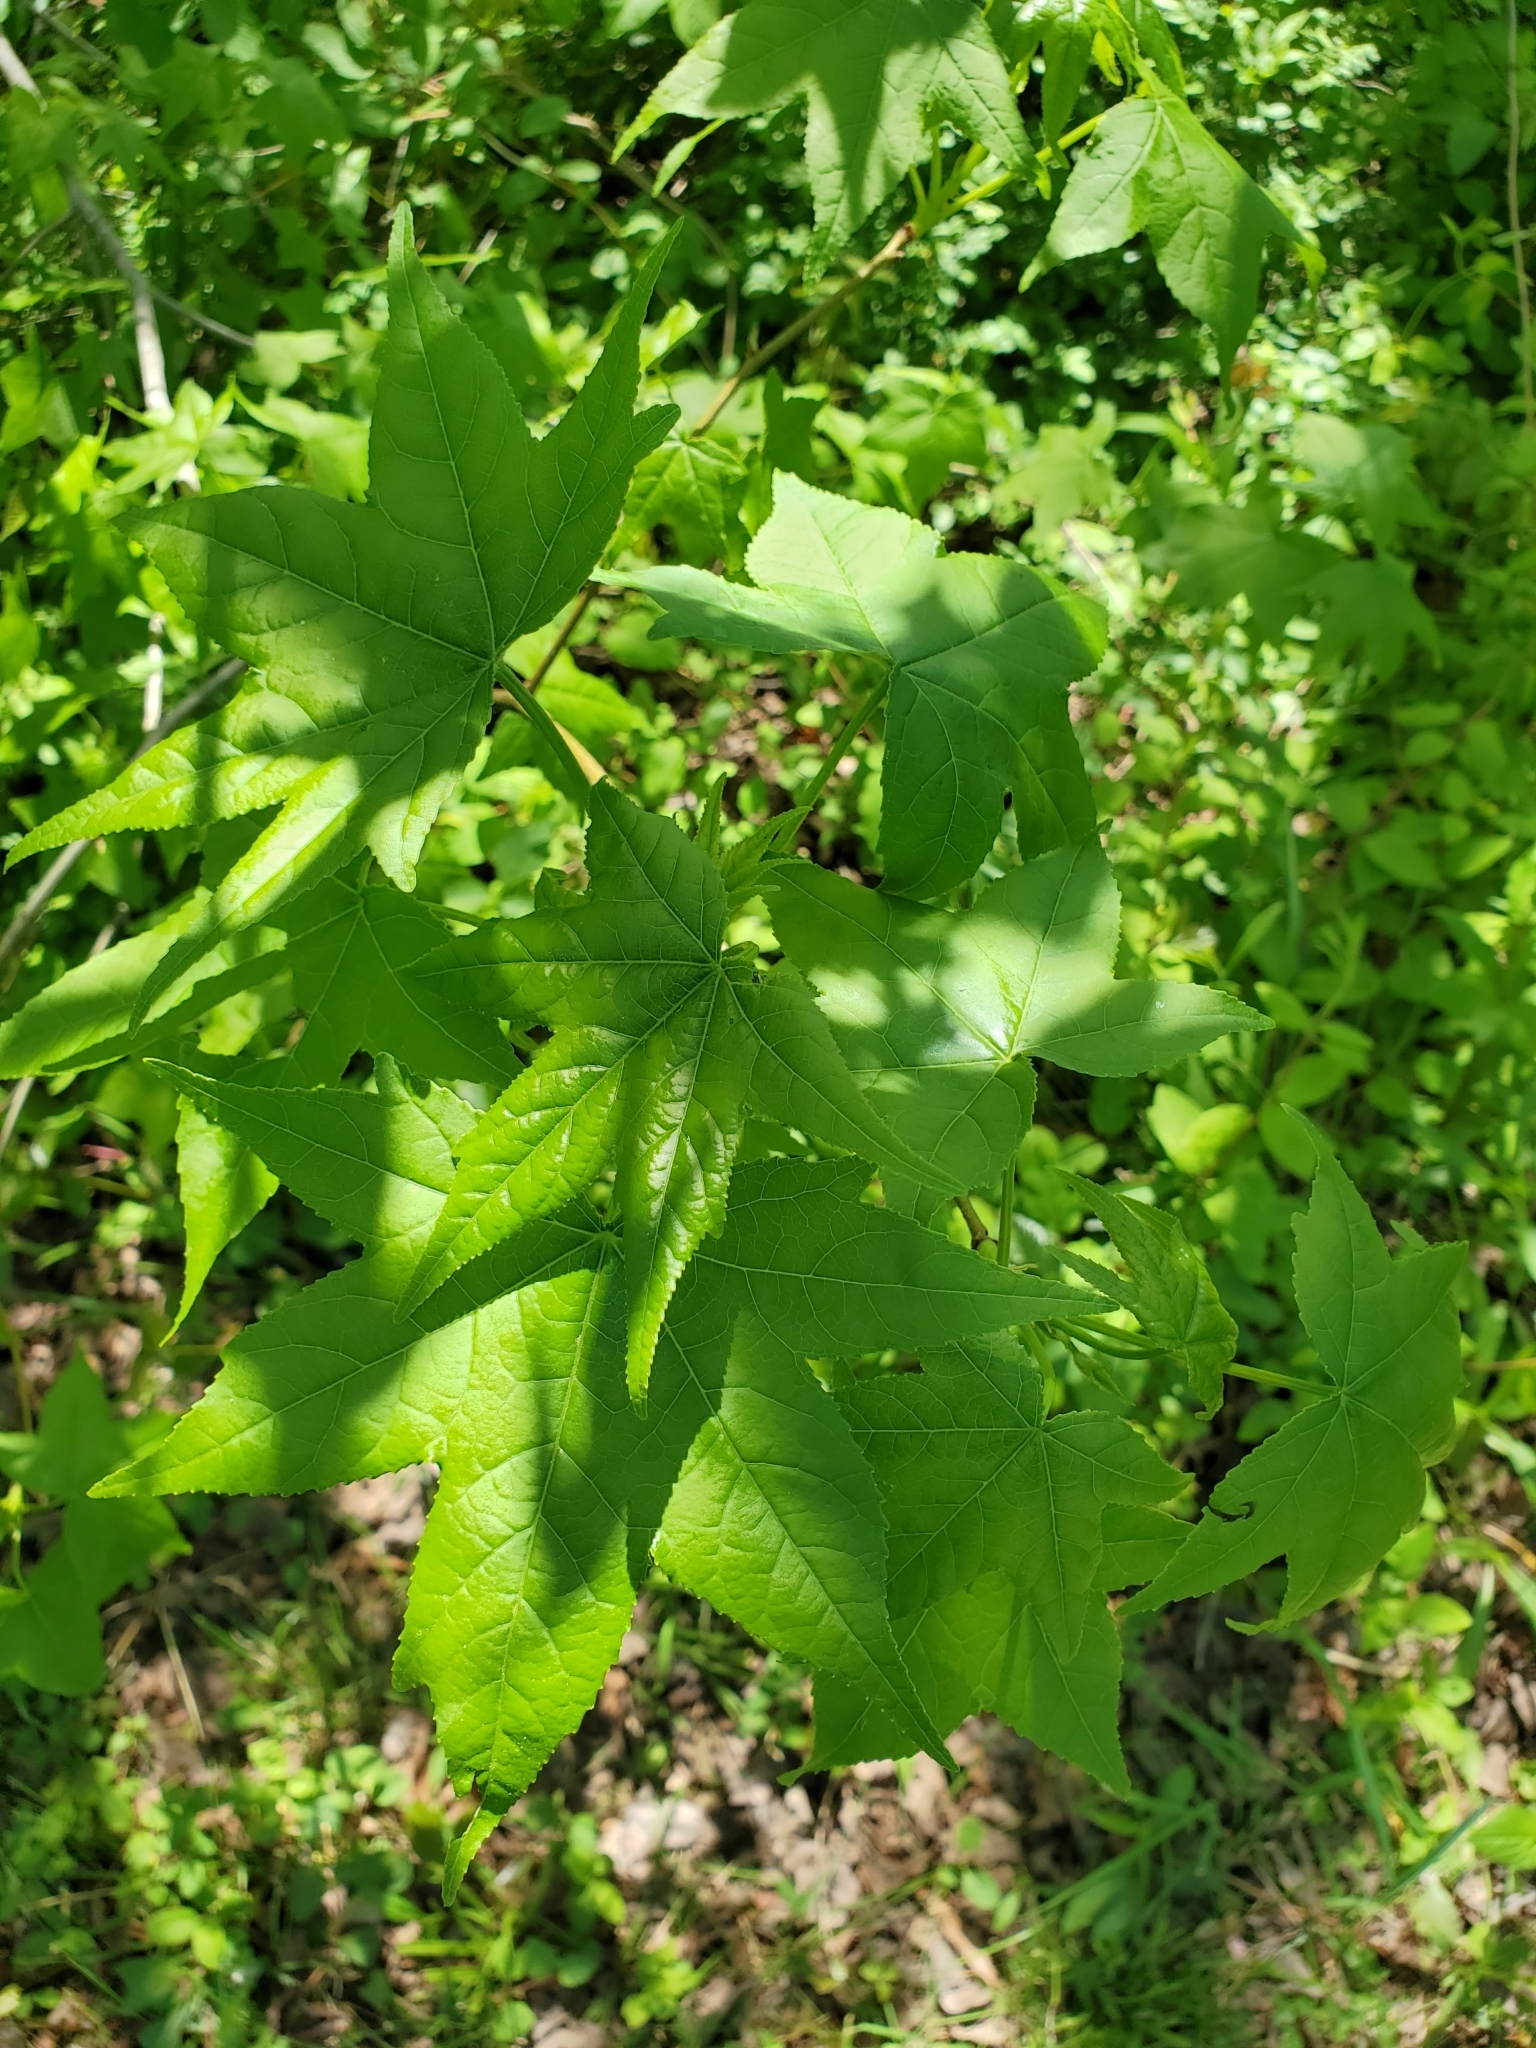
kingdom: Plantae
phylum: Tracheophyta
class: Magnoliopsida
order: Saxifragales
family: Altingiaceae
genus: Liquidambar
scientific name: Liquidambar styraciflua
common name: Sweet gum
